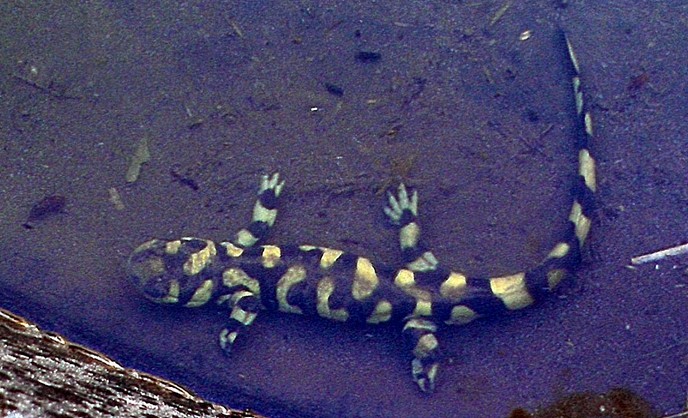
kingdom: Animalia
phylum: Chordata
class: Amphibia
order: Caudata
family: Ambystomatidae
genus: Ambystoma
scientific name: Ambystoma mavortium
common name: Western tiger salamander
